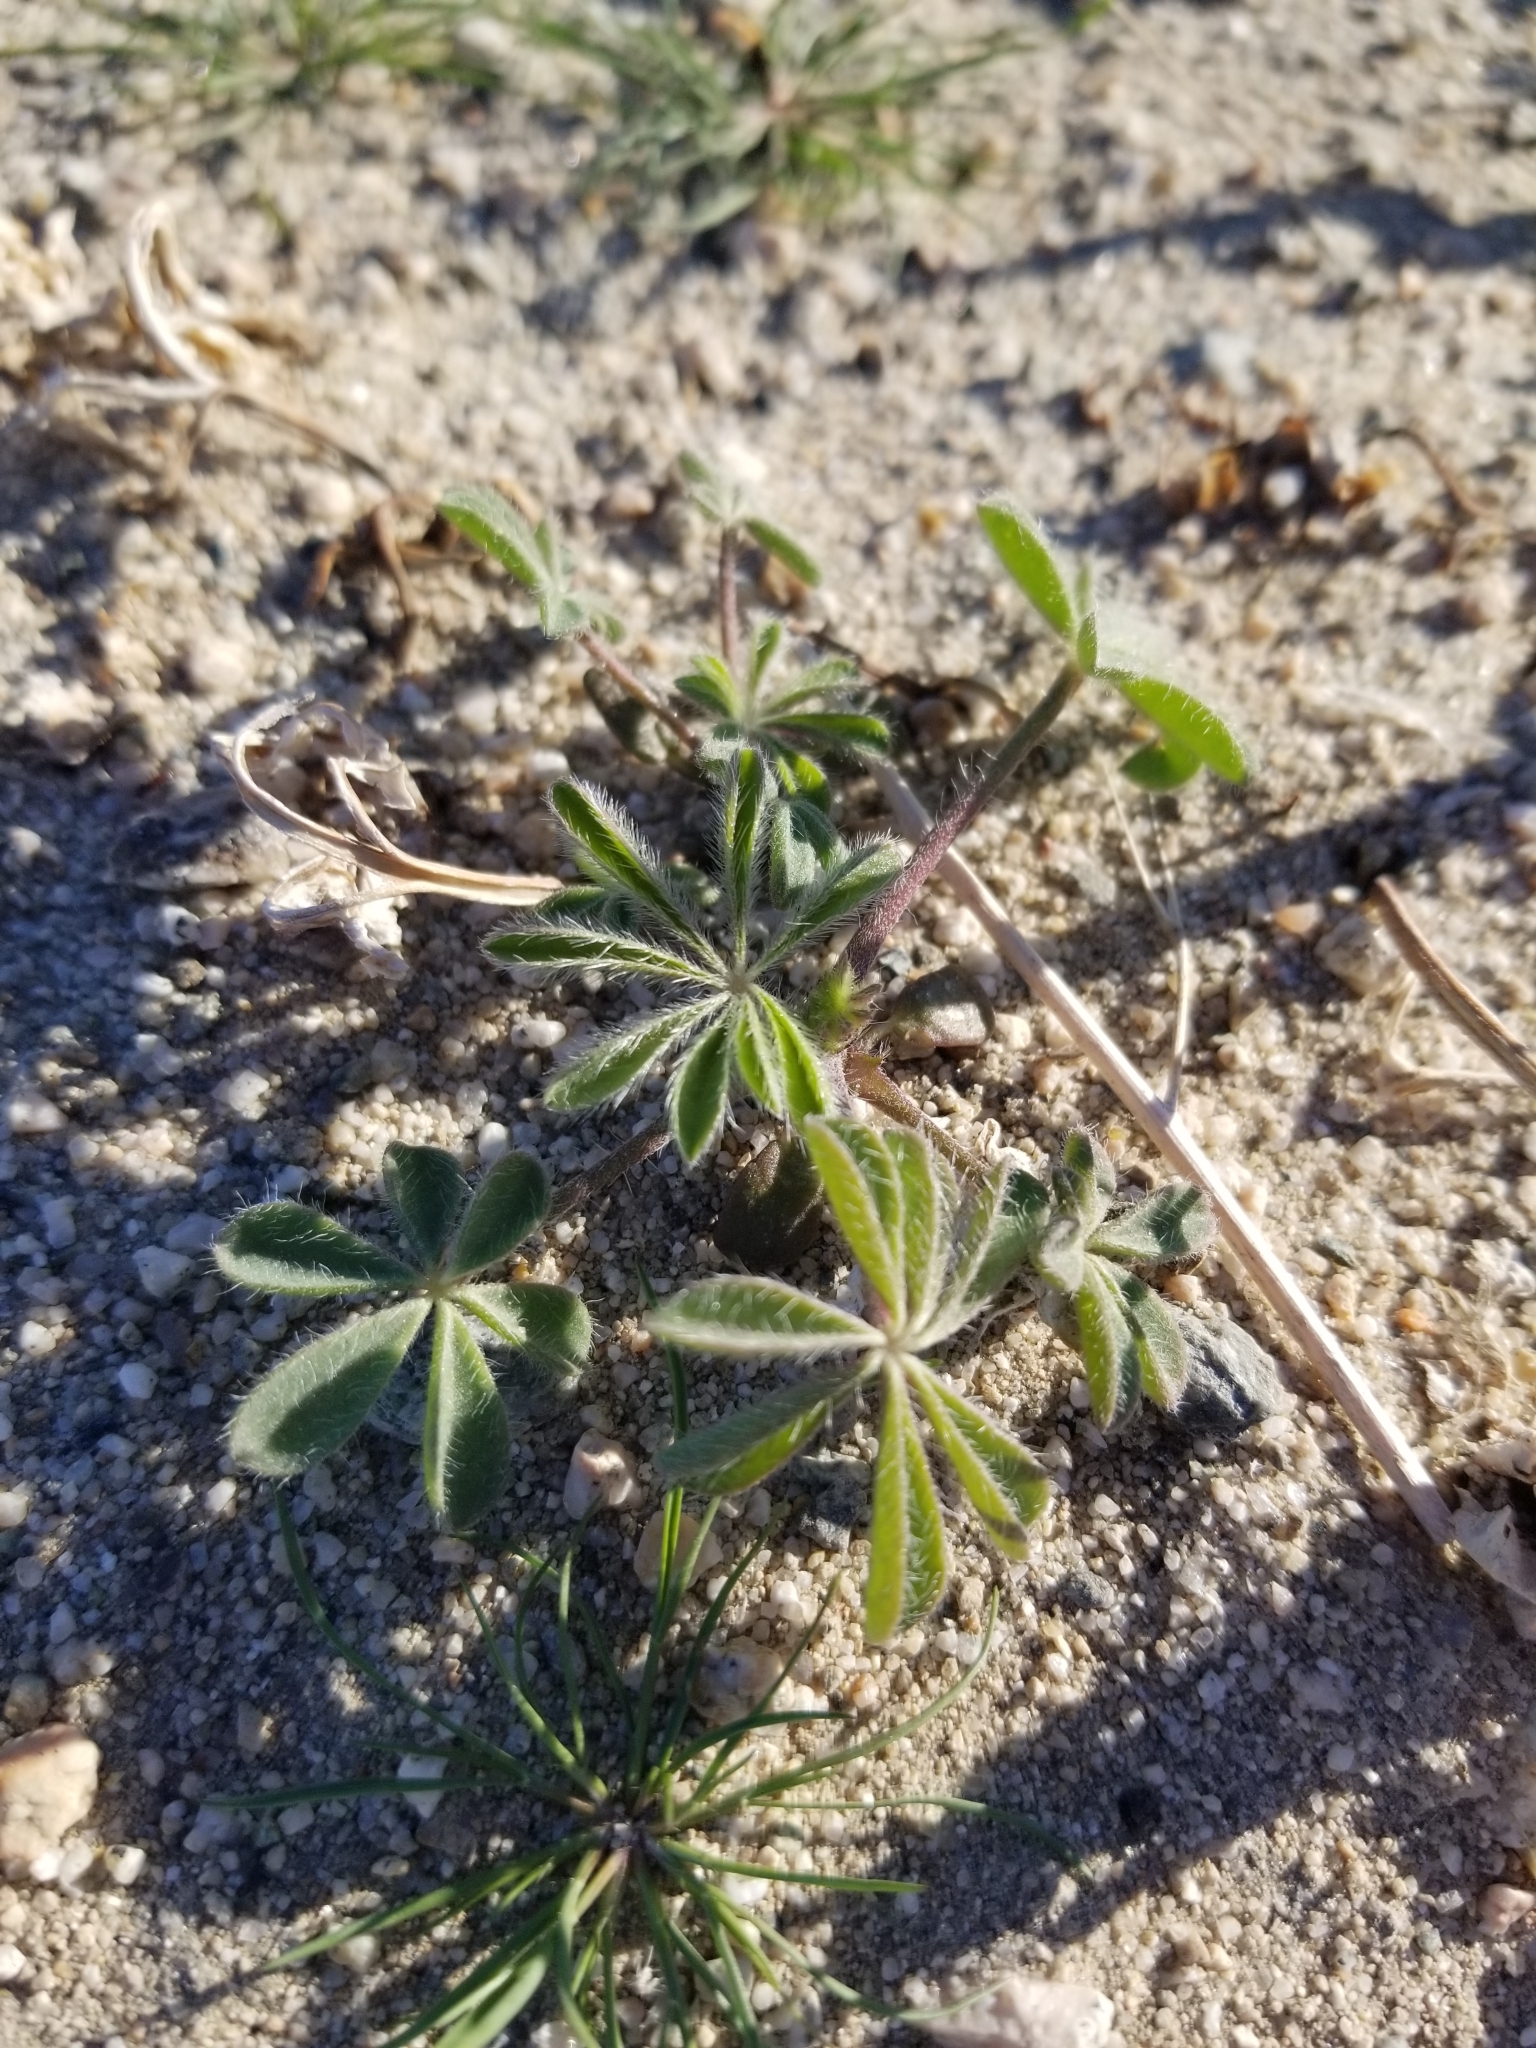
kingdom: Plantae
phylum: Tracheophyta
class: Magnoliopsida
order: Fabales
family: Fabaceae
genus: Lupinus
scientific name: Lupinus arizonicus
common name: Arizona lupine
